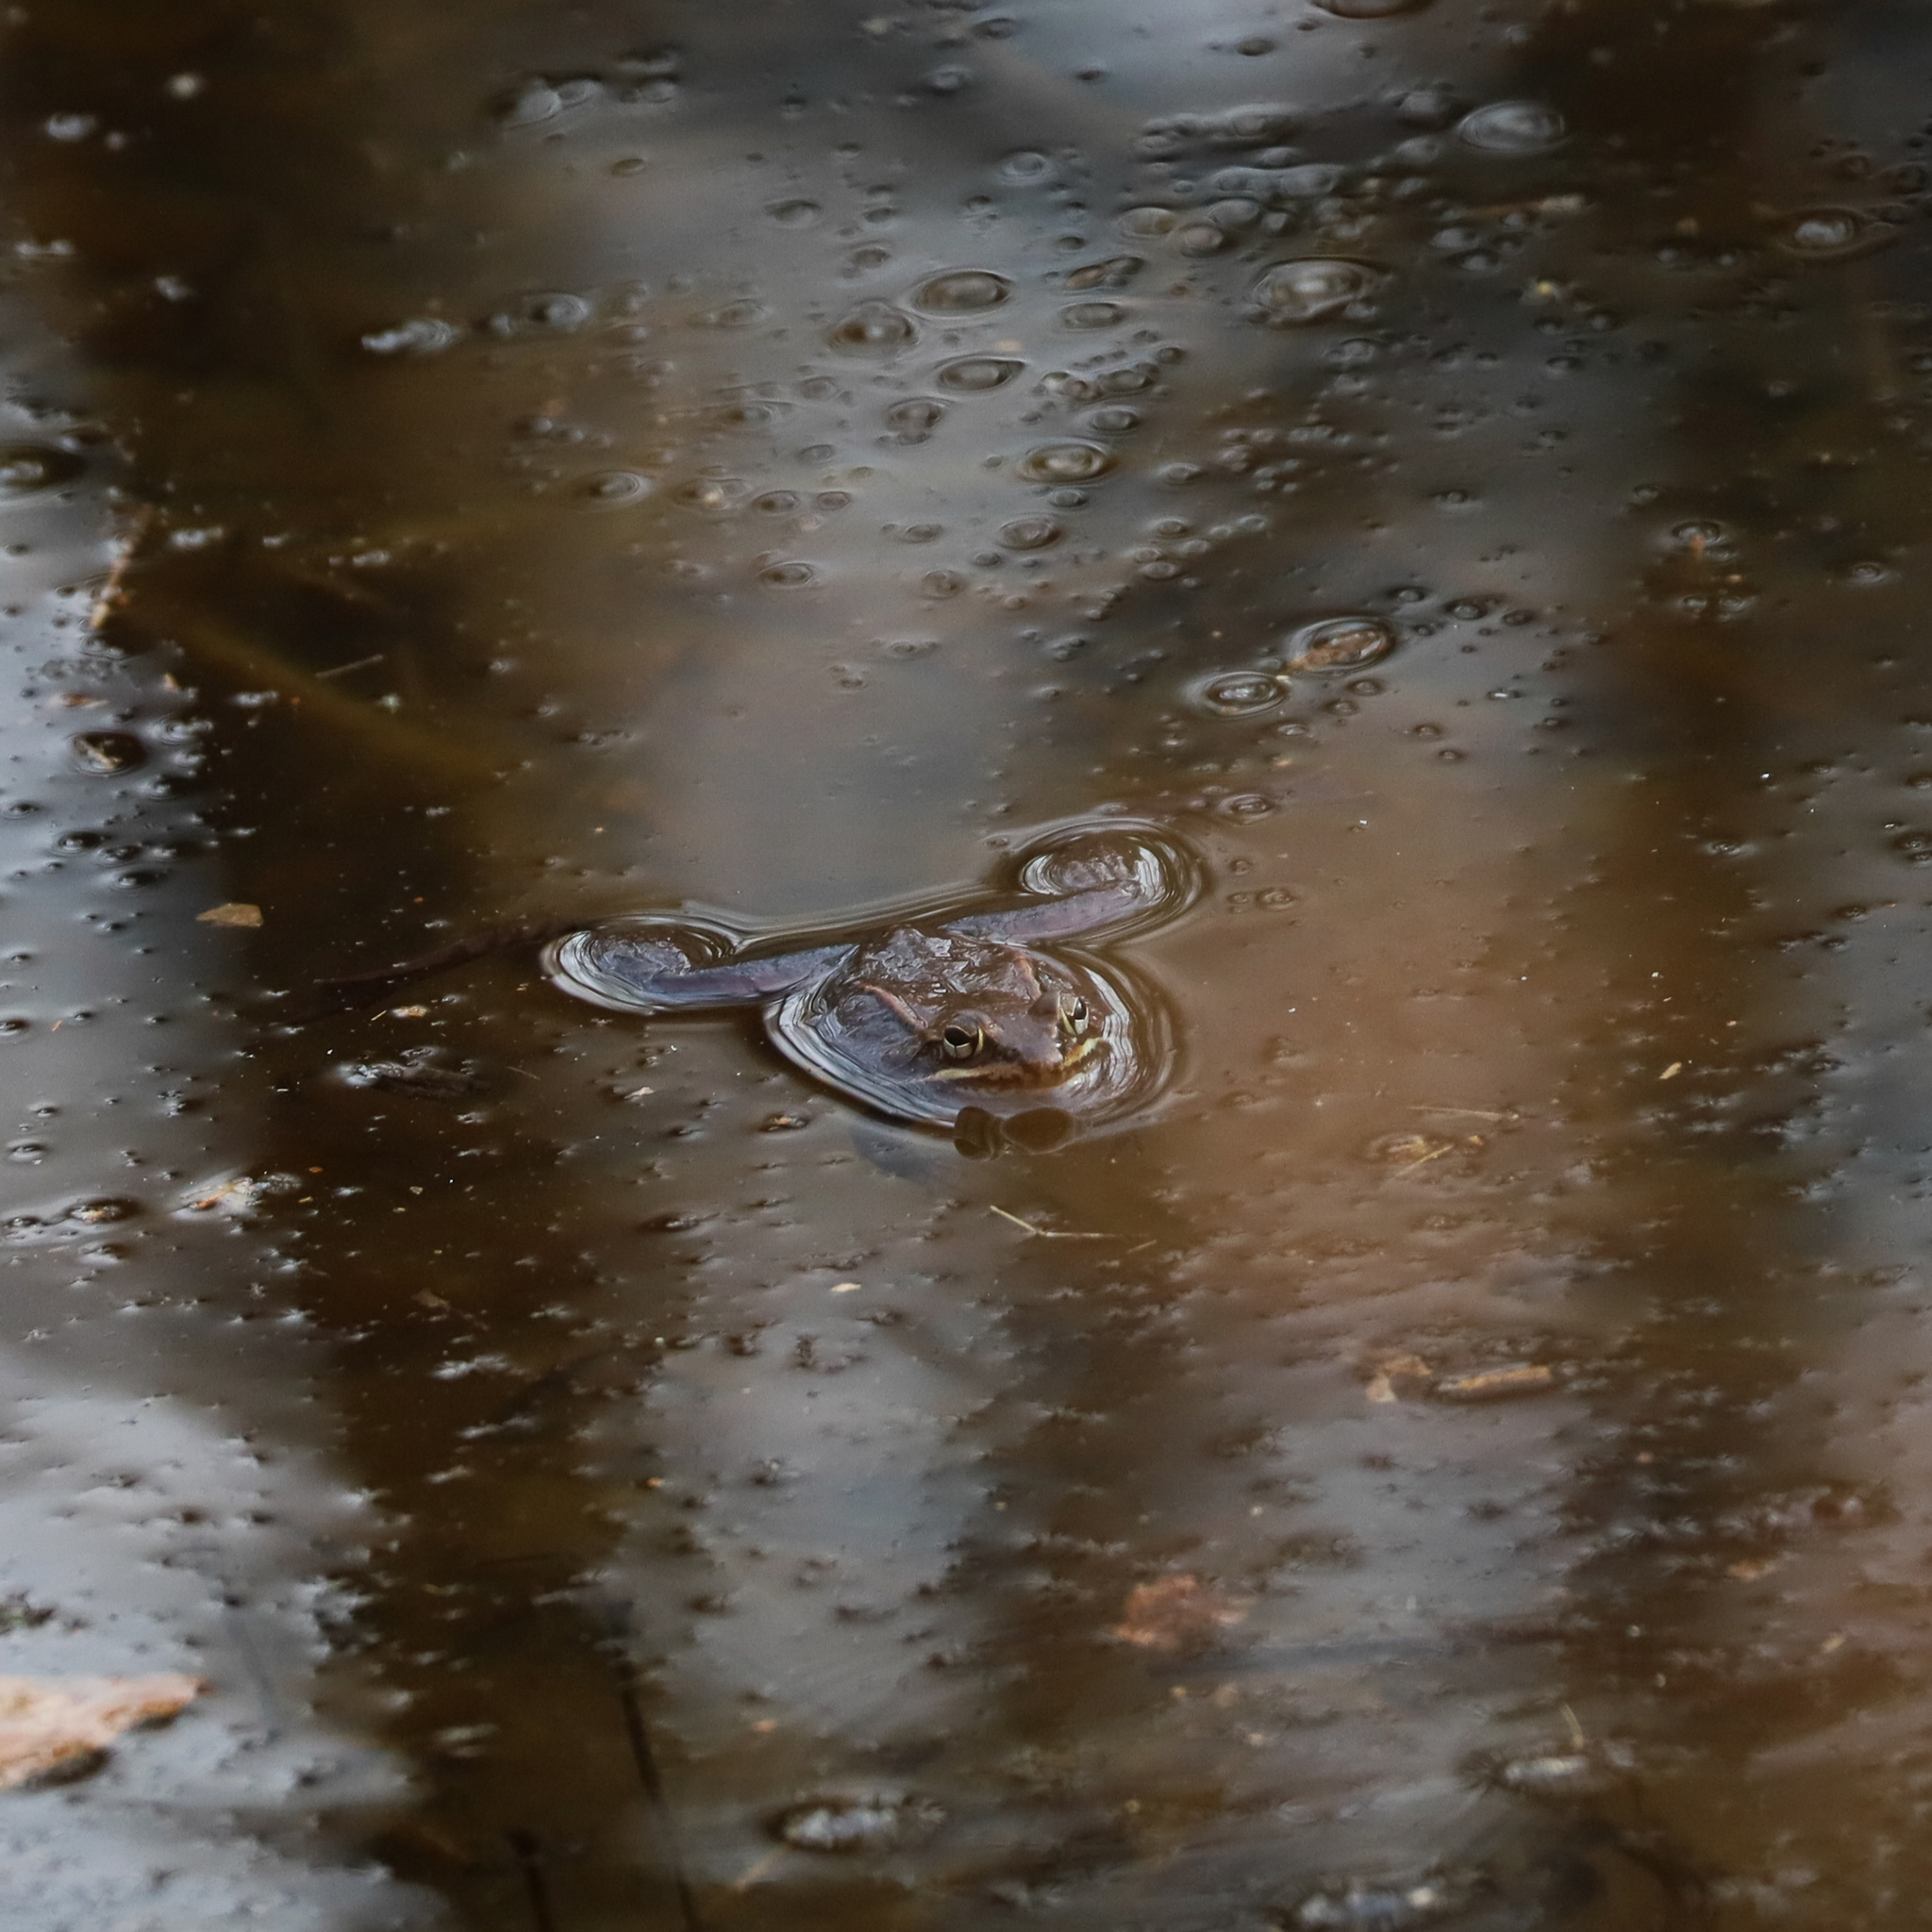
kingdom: Animalia
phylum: Chordata
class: Amphibia
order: Anura
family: Ranidae
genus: Lithobates
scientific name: Lithobates sylvaticus
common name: Wood frog
